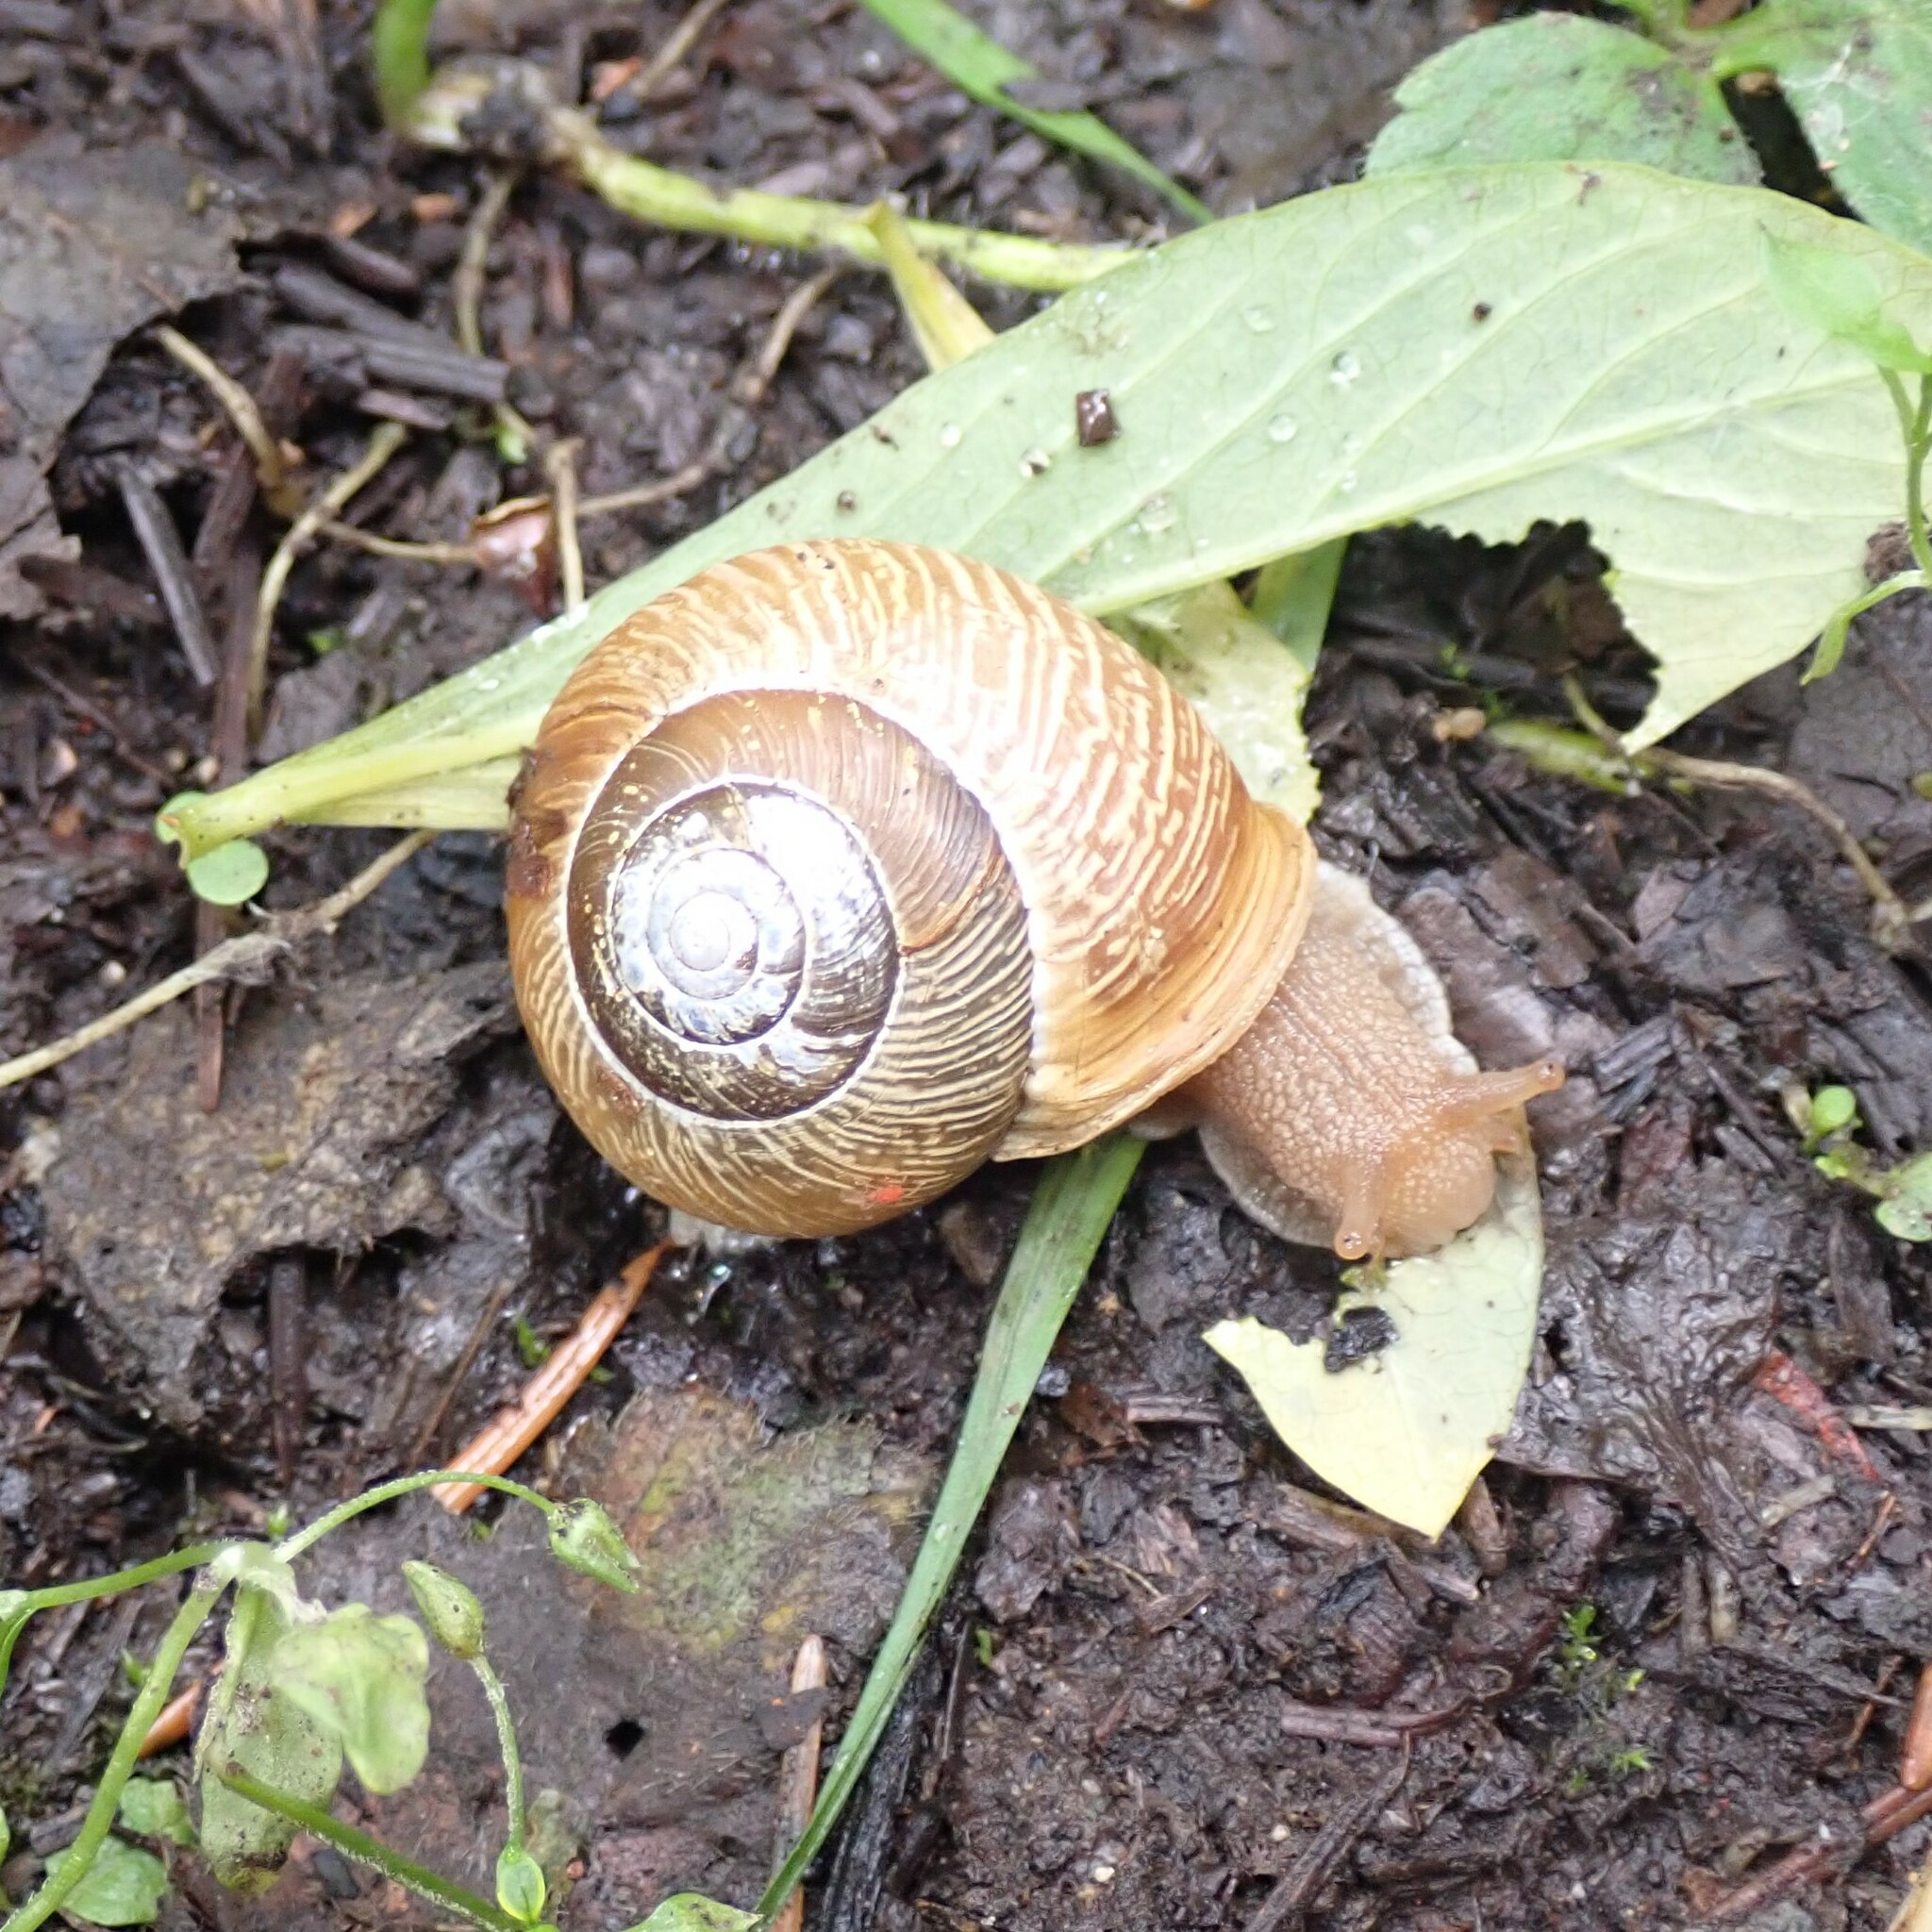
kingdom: Animalia
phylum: Mollusca
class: Gastropoda
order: Stylommatophora
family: Polygyridae
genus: Allogona
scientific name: Allogona townsendiana
